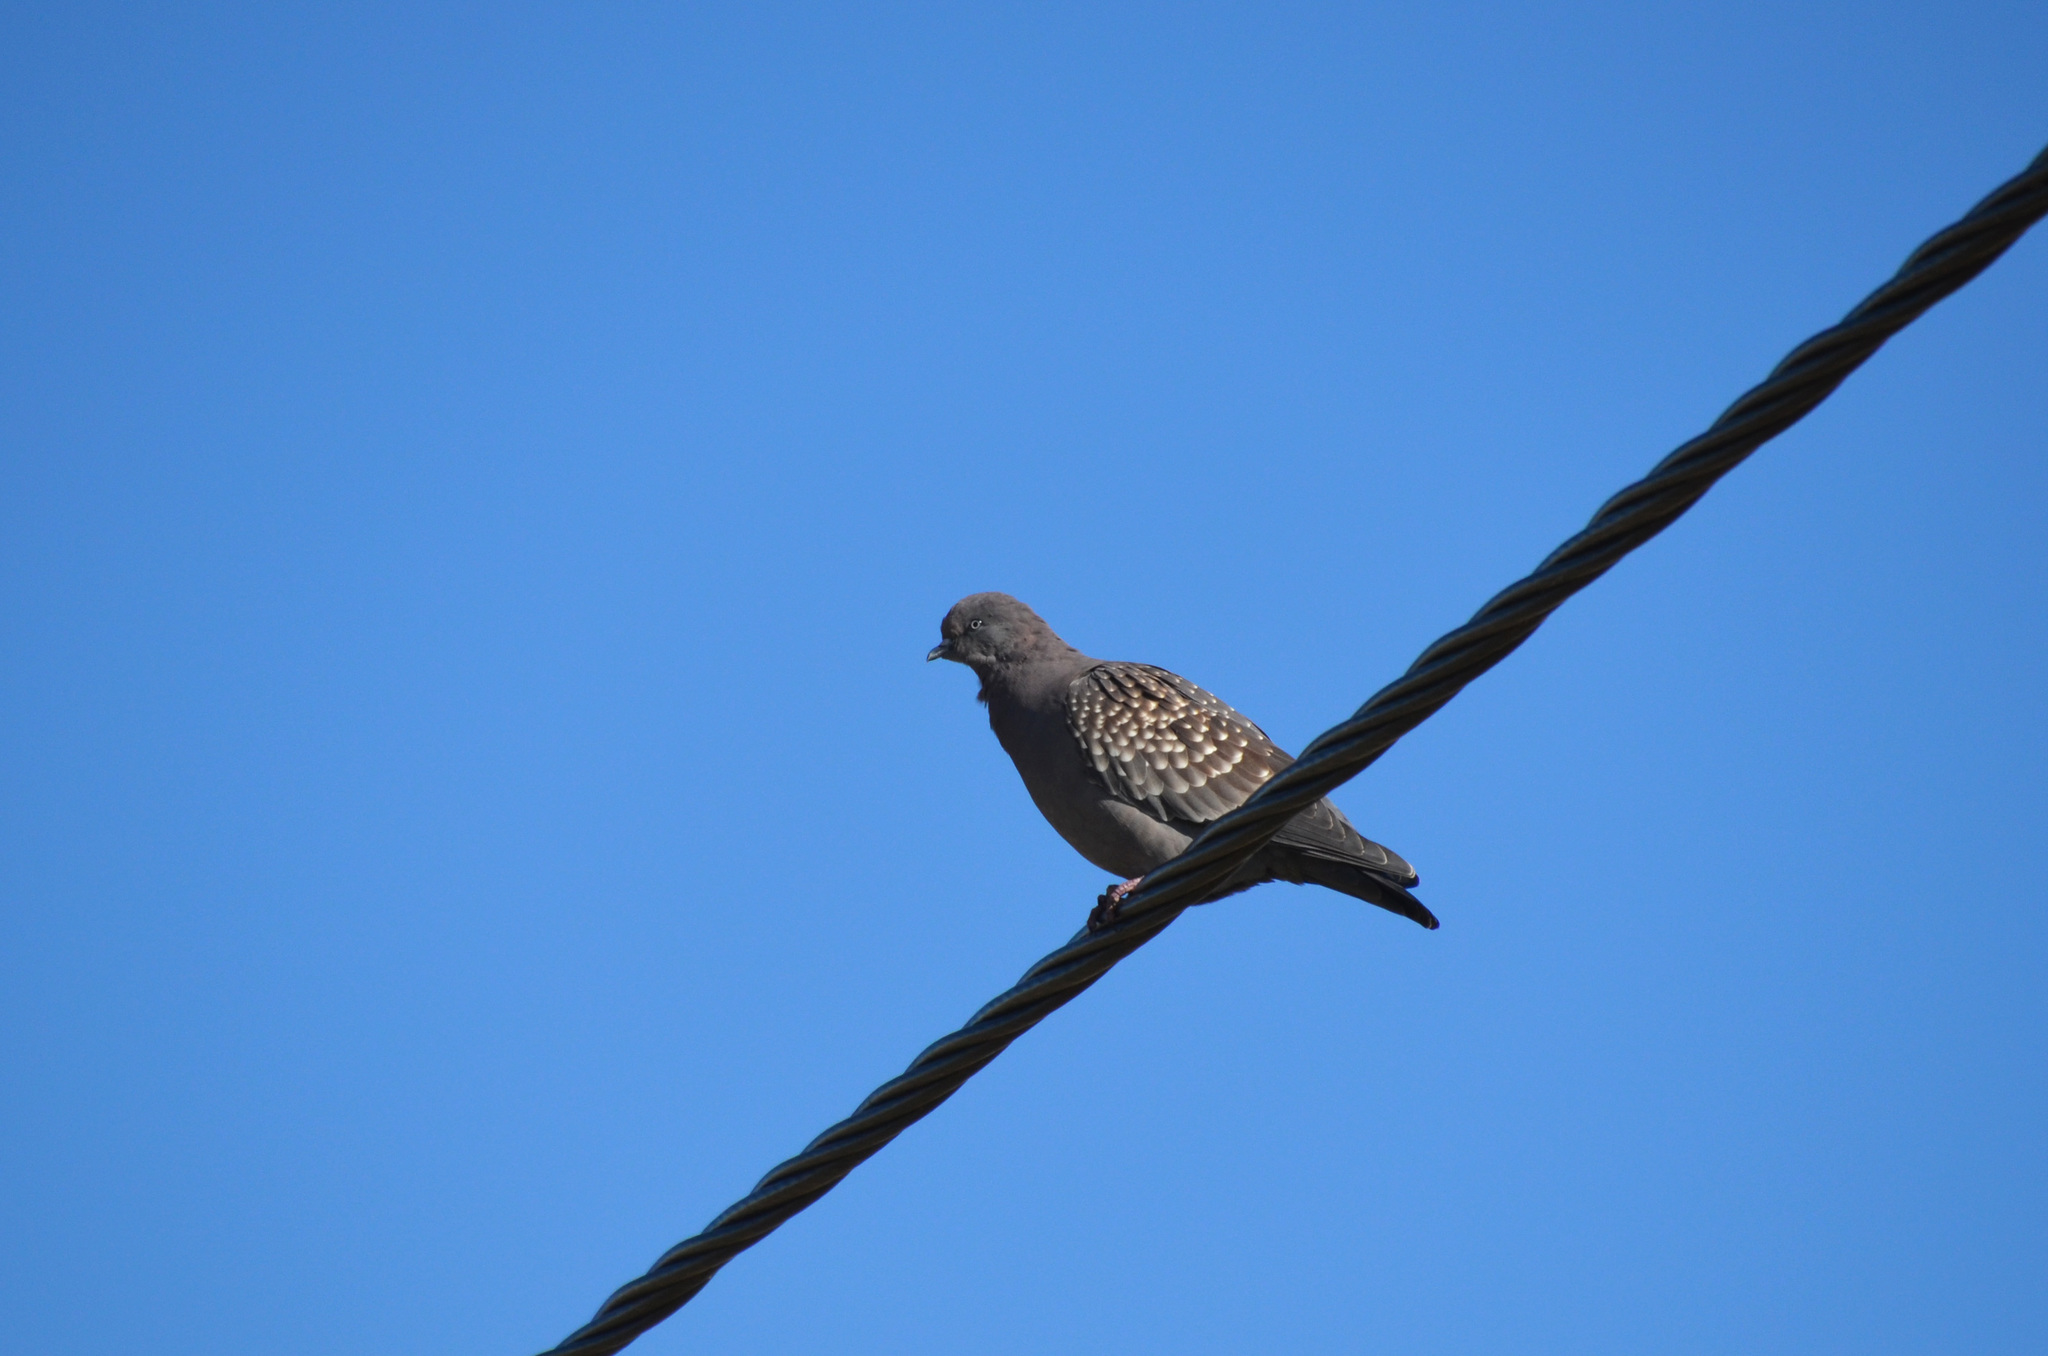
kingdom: Animalia
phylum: Chordata
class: Aves
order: Columbiformes
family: Columbidae
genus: Patagioenas
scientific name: Patagioenas maculosa
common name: Spot-winged pigeon
